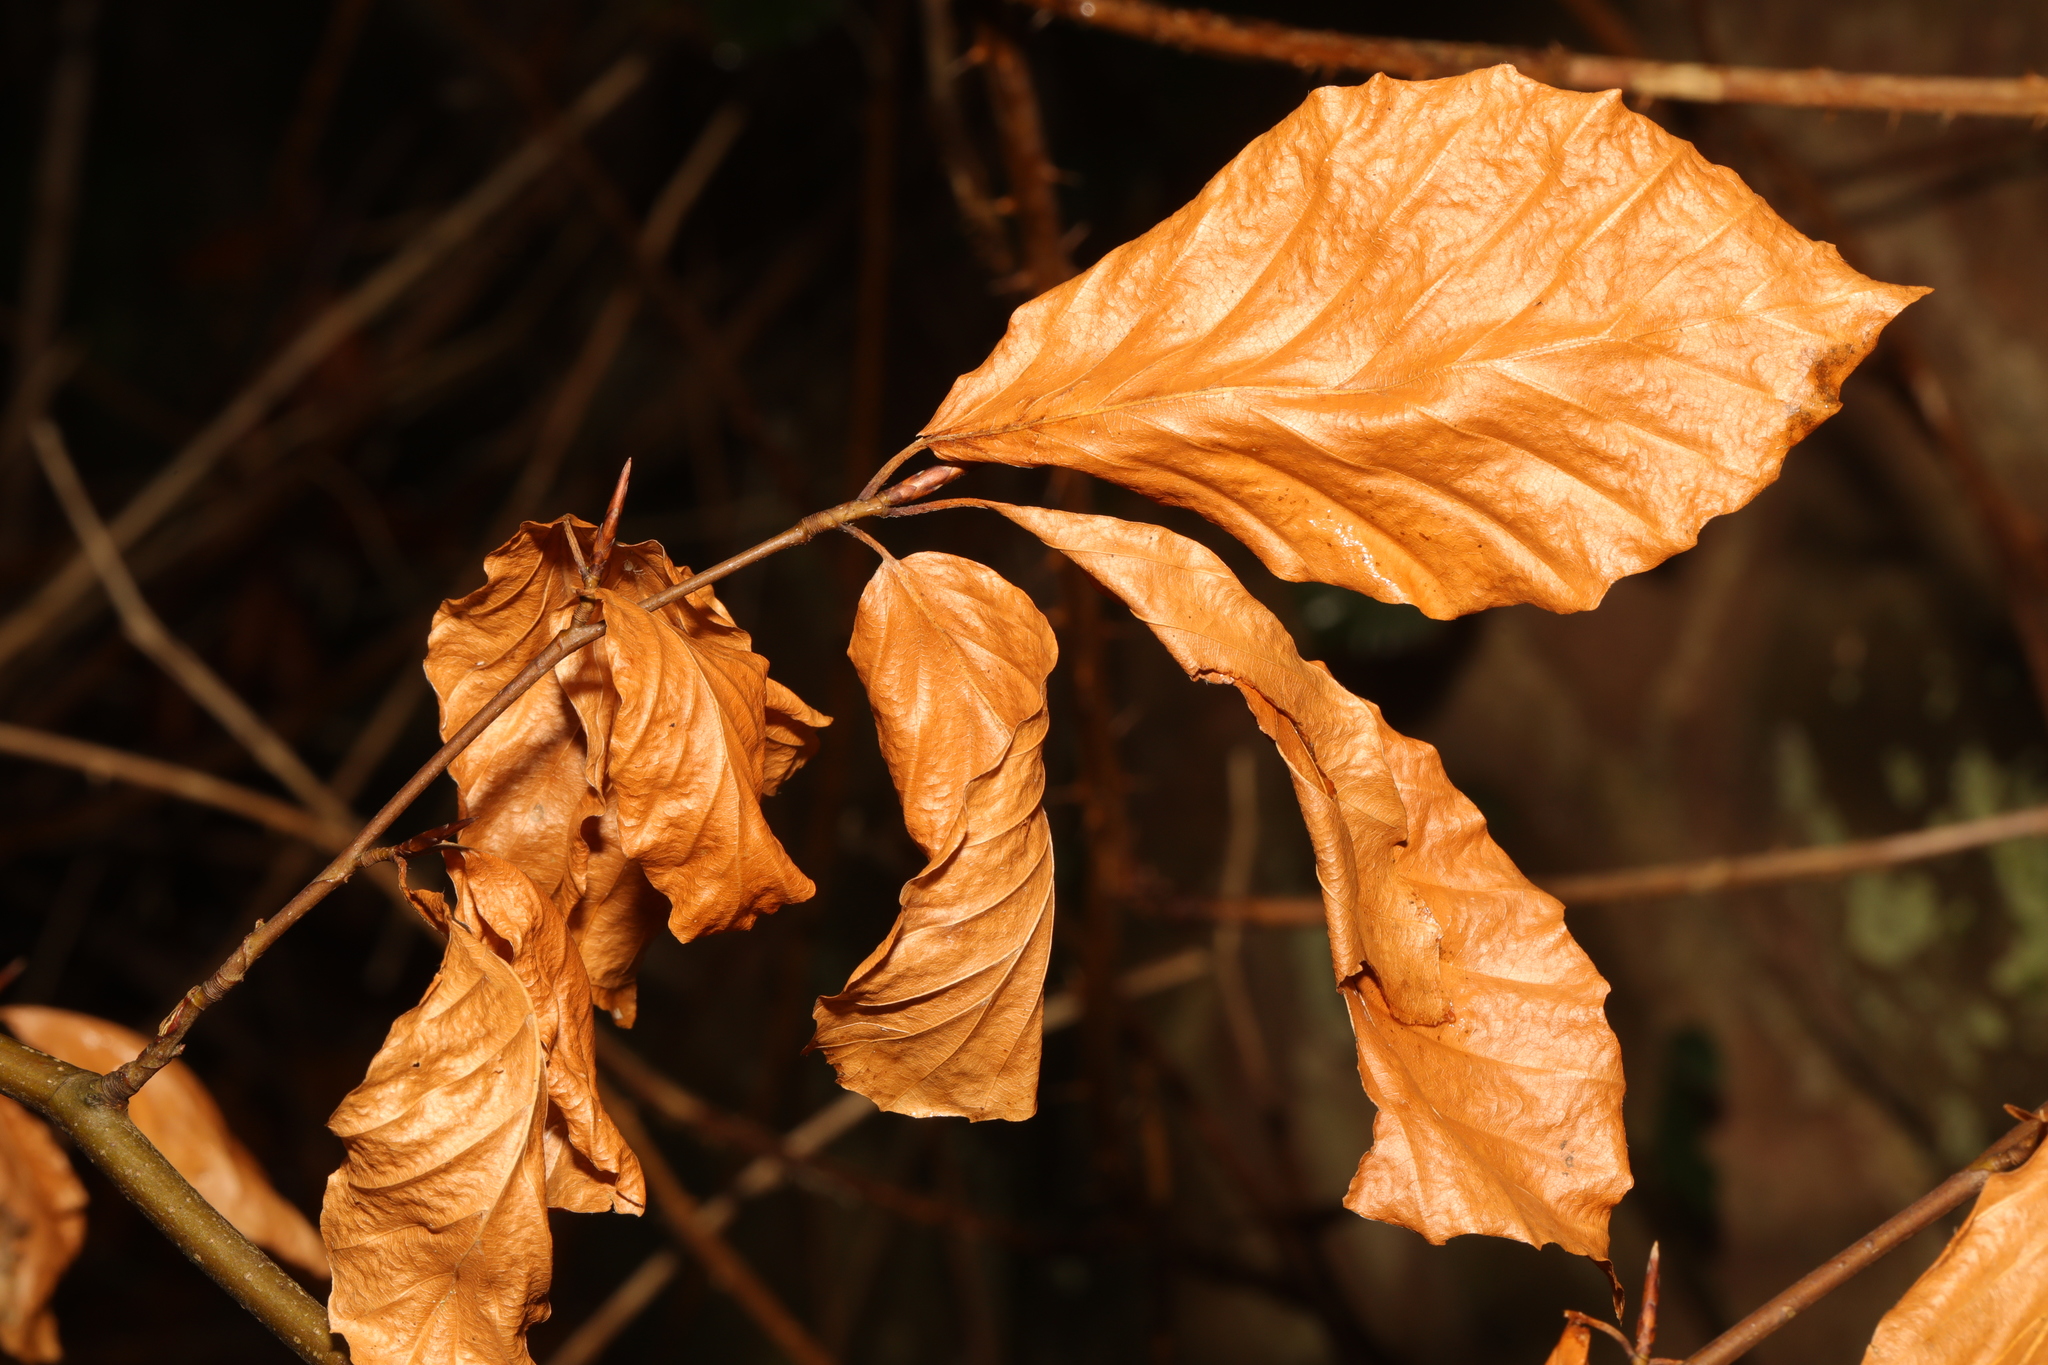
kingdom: Plantae
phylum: Tracheophyta
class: Magnoliopsida
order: Fagales
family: Fagaceae
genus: Fagus
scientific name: Fagus sylvatica
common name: Beech
